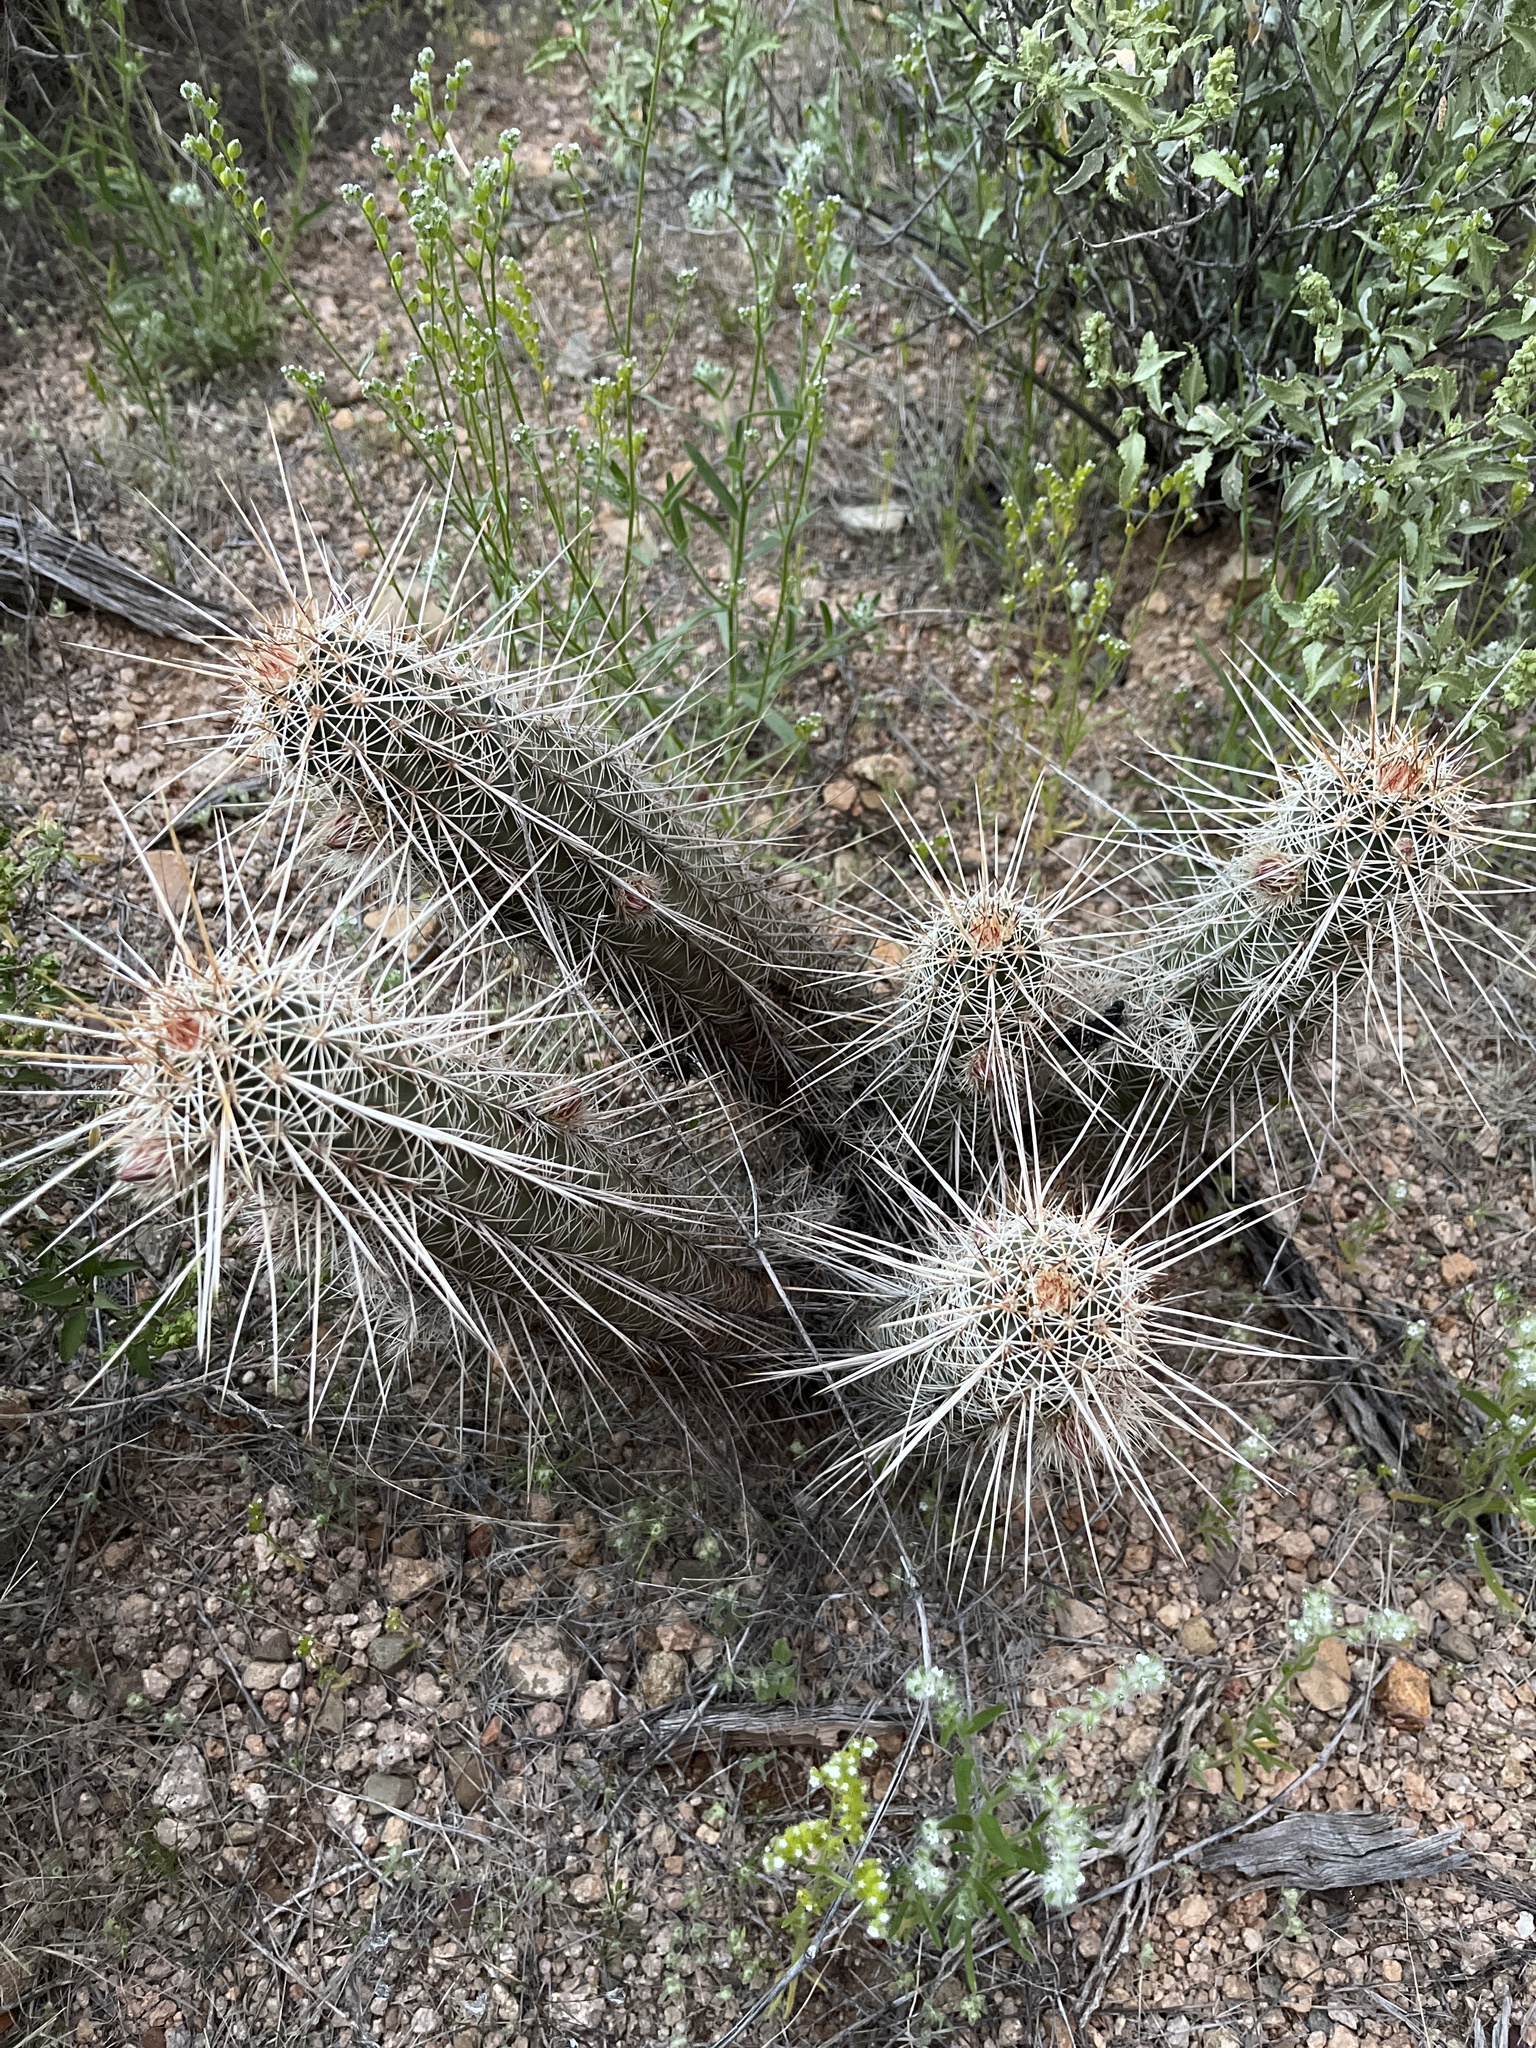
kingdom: Plantae
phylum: Tracheophyta
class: Magnoliopsida
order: Caryophyllales
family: Cactaceae
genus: Echinocereus
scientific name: Echinocereus fasciculatus
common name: Bundle hedgehog
